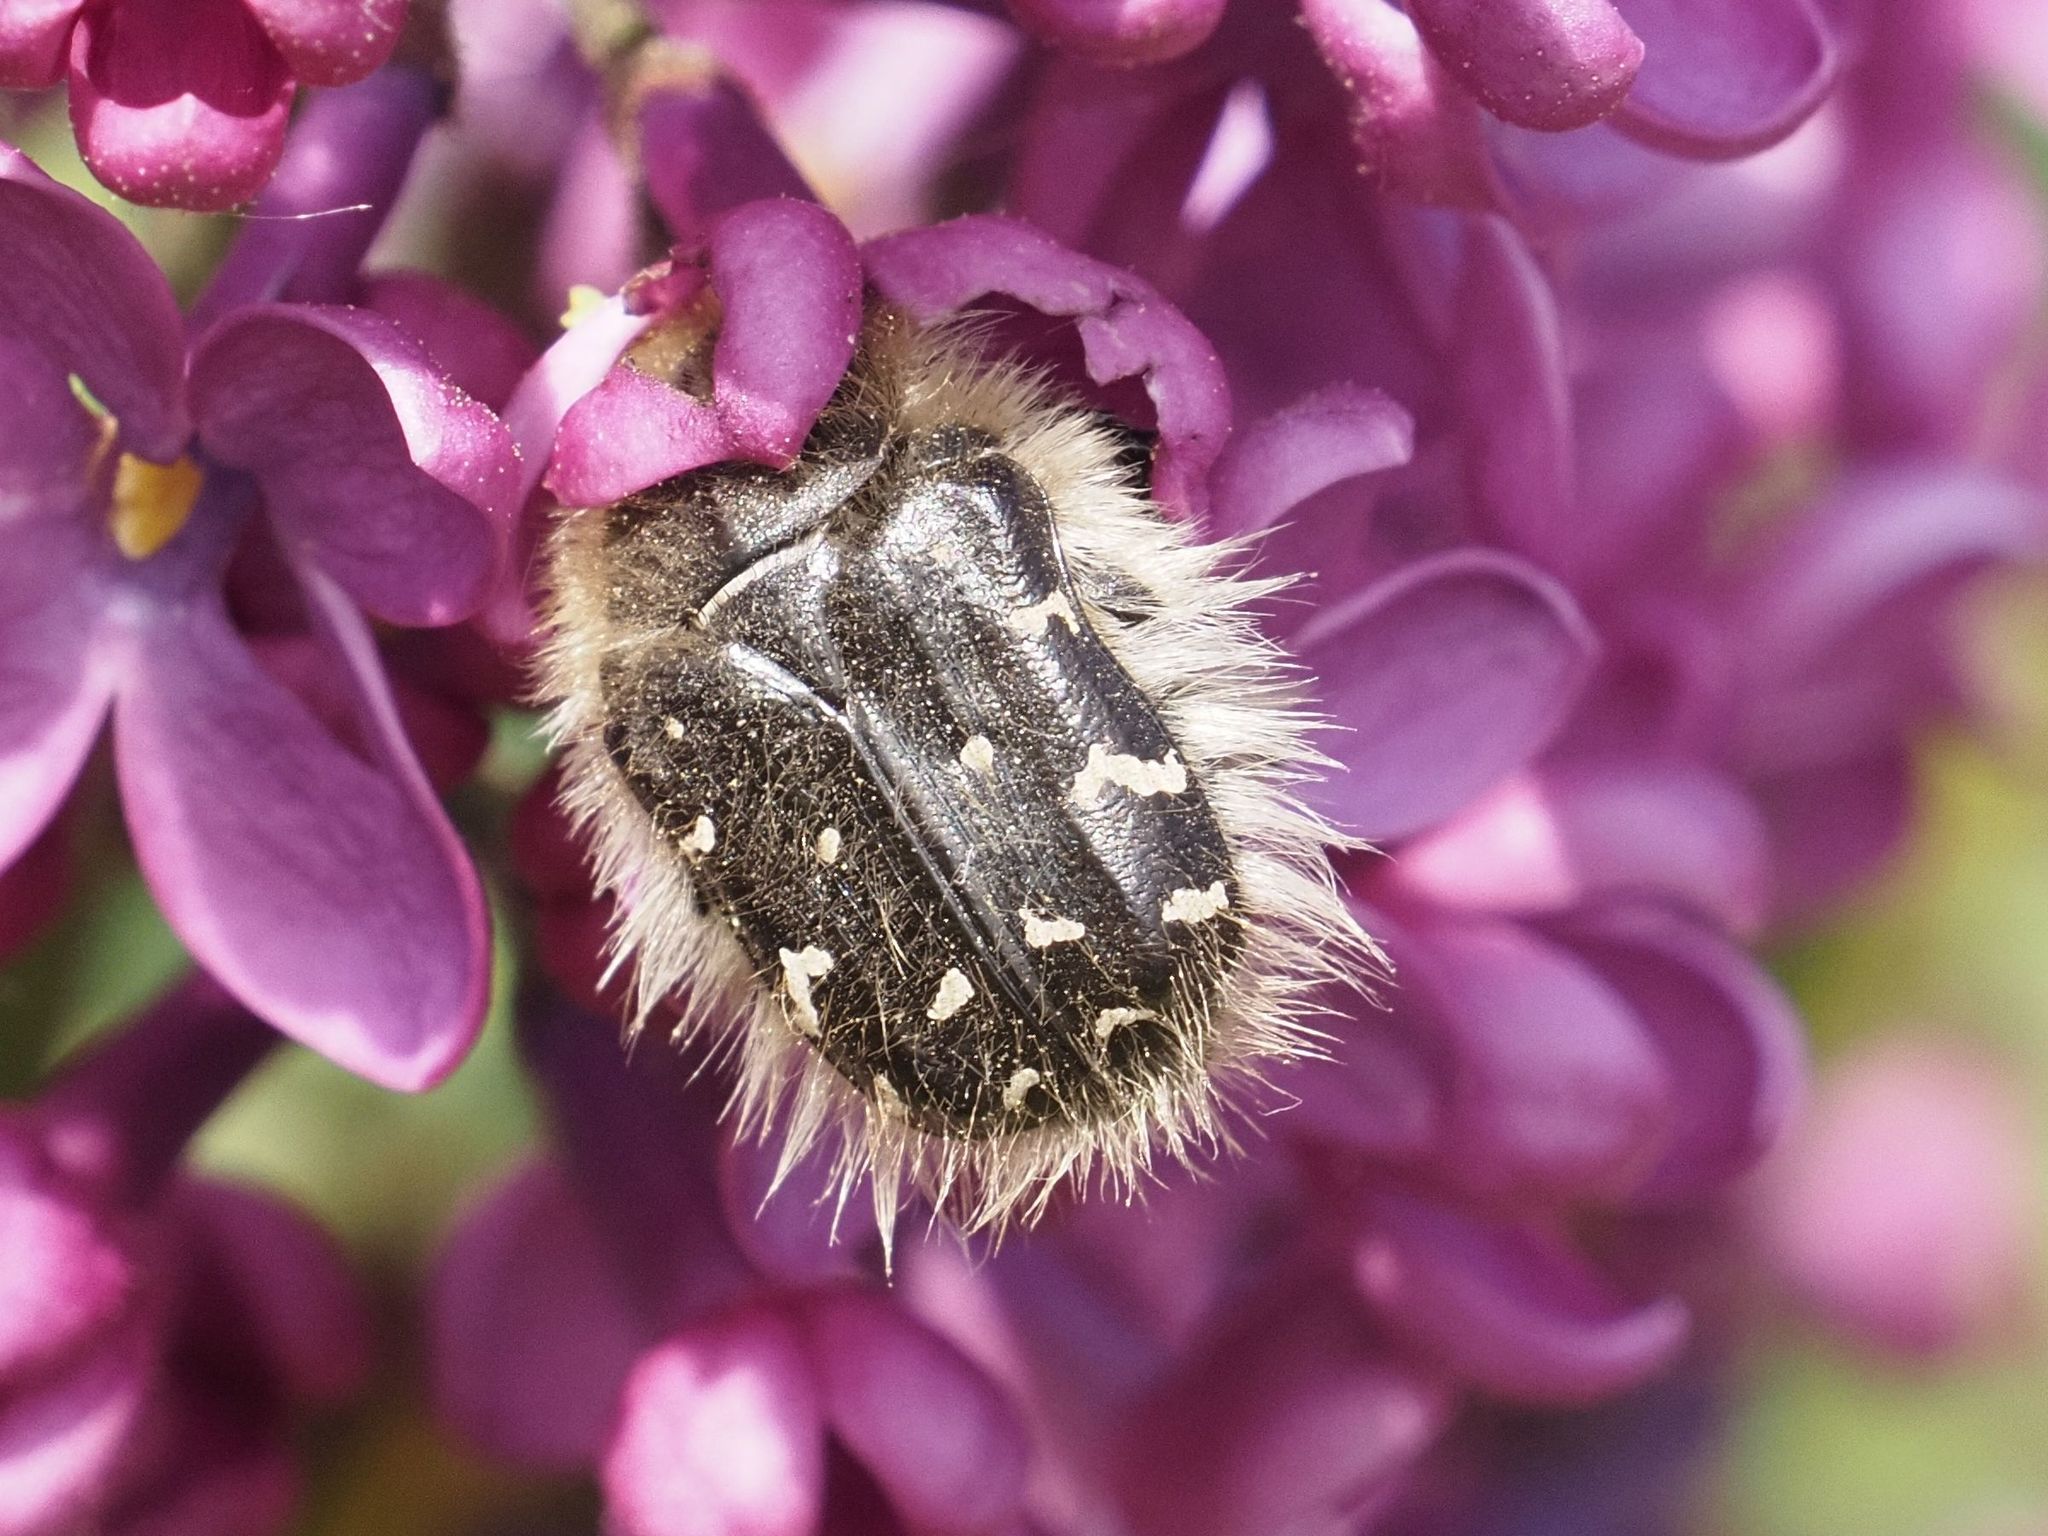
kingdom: Animalia
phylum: Arthropoda
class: Insecta
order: Coleoptera
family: Scarabaeidae
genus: Tropinota
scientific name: Tropinota hirta
